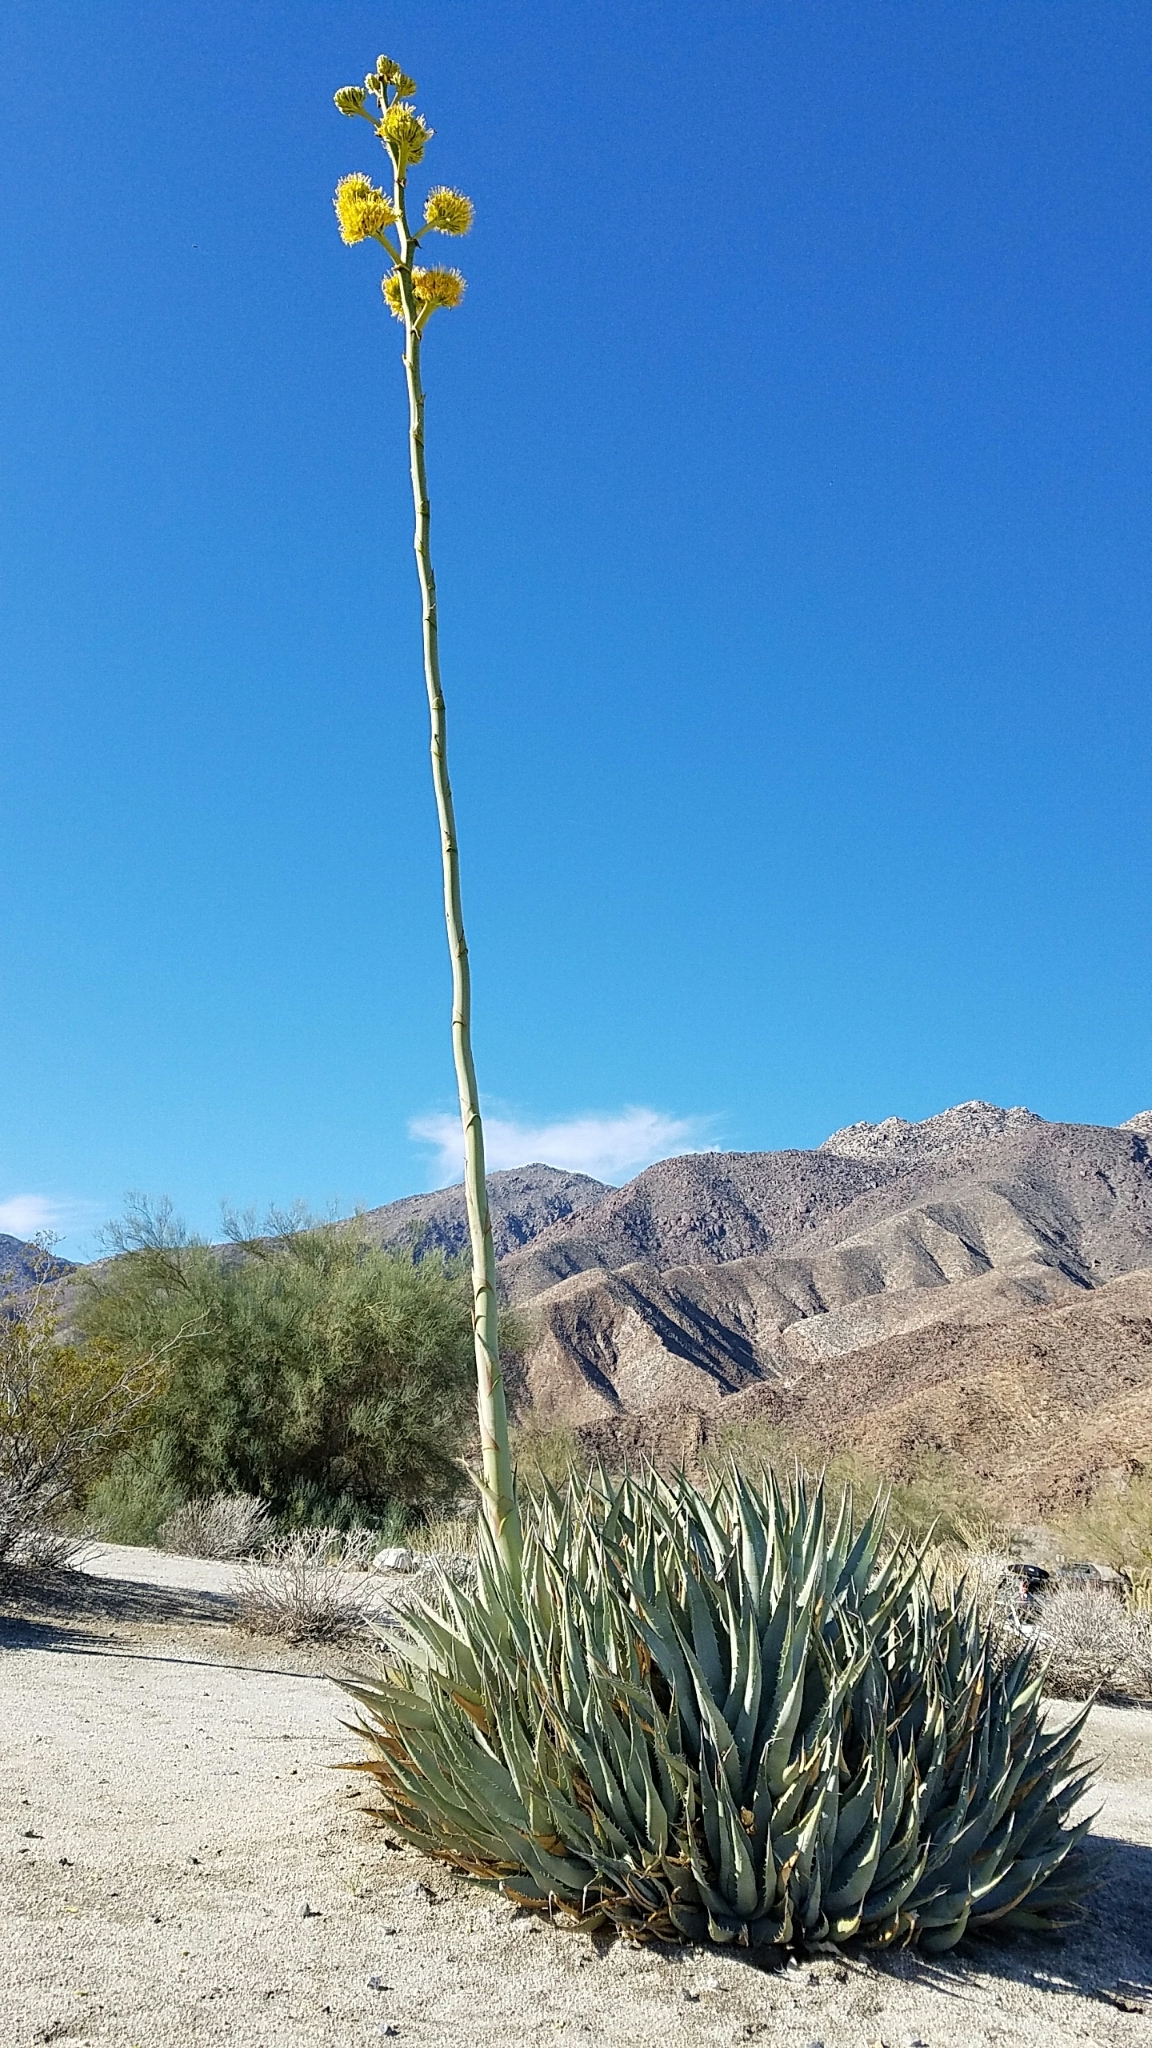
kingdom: Plantae
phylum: Tracheophyta
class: Liliopsida
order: Asparagales
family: Asparagaceae
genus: Agave
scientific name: Agave deserti
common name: Desert agave
